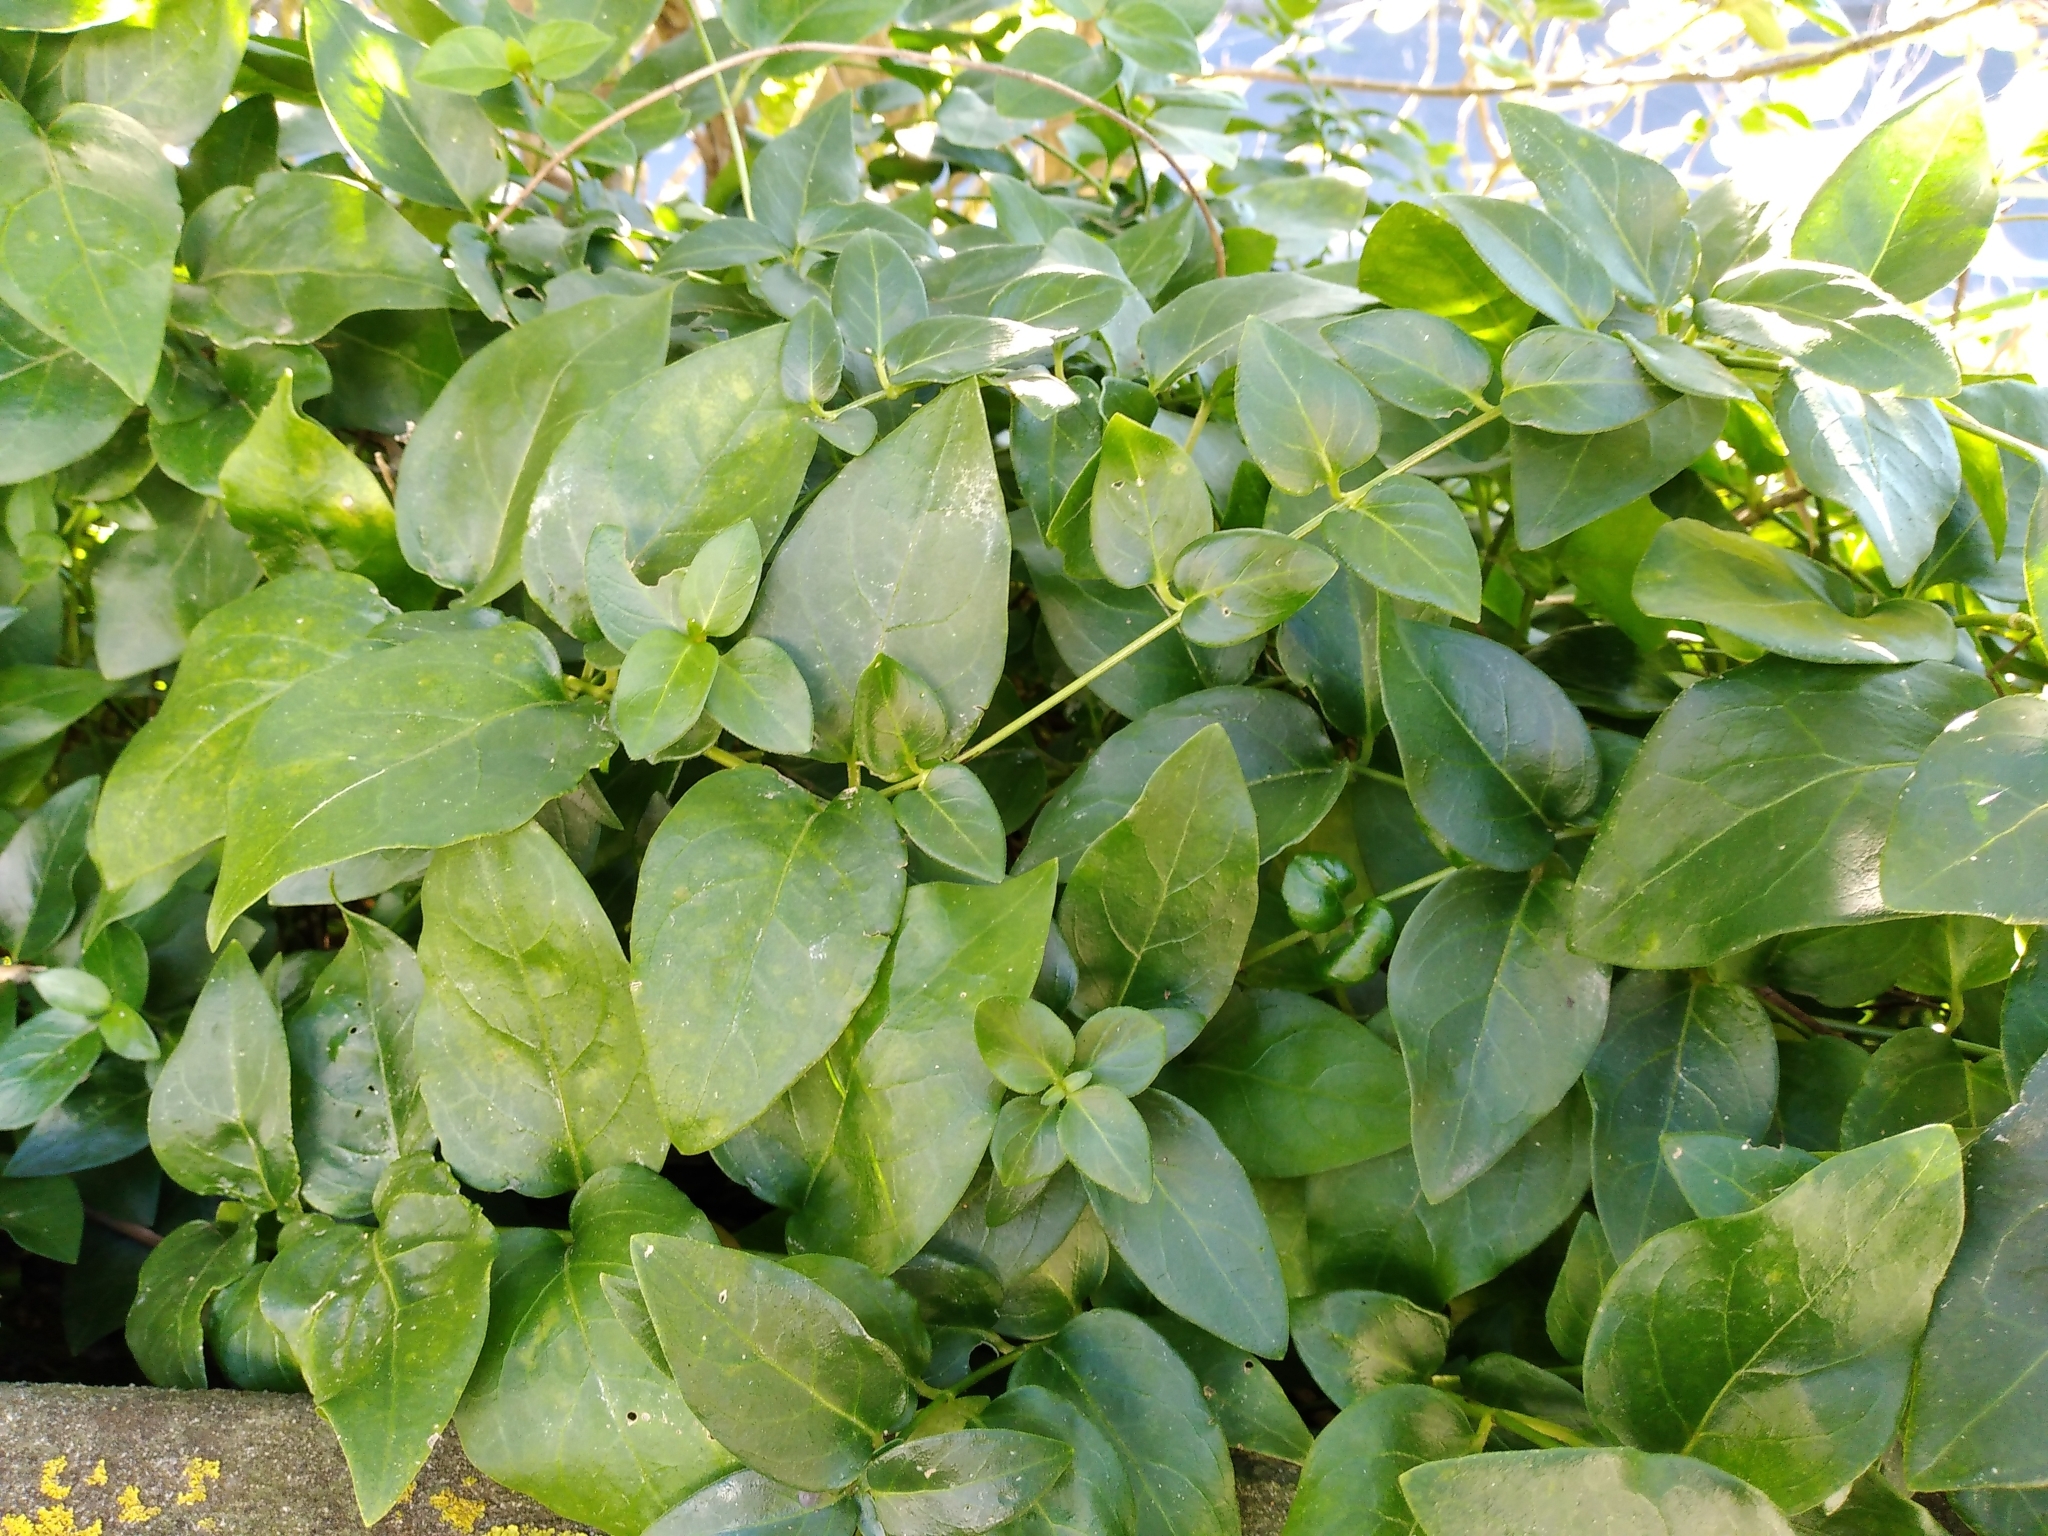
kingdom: Plantae
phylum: Tracheophyta
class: Magnoliopsida
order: Gentianales
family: Apocynaceae
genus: Vinca
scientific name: Vinca major
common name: Greater periwinkle
